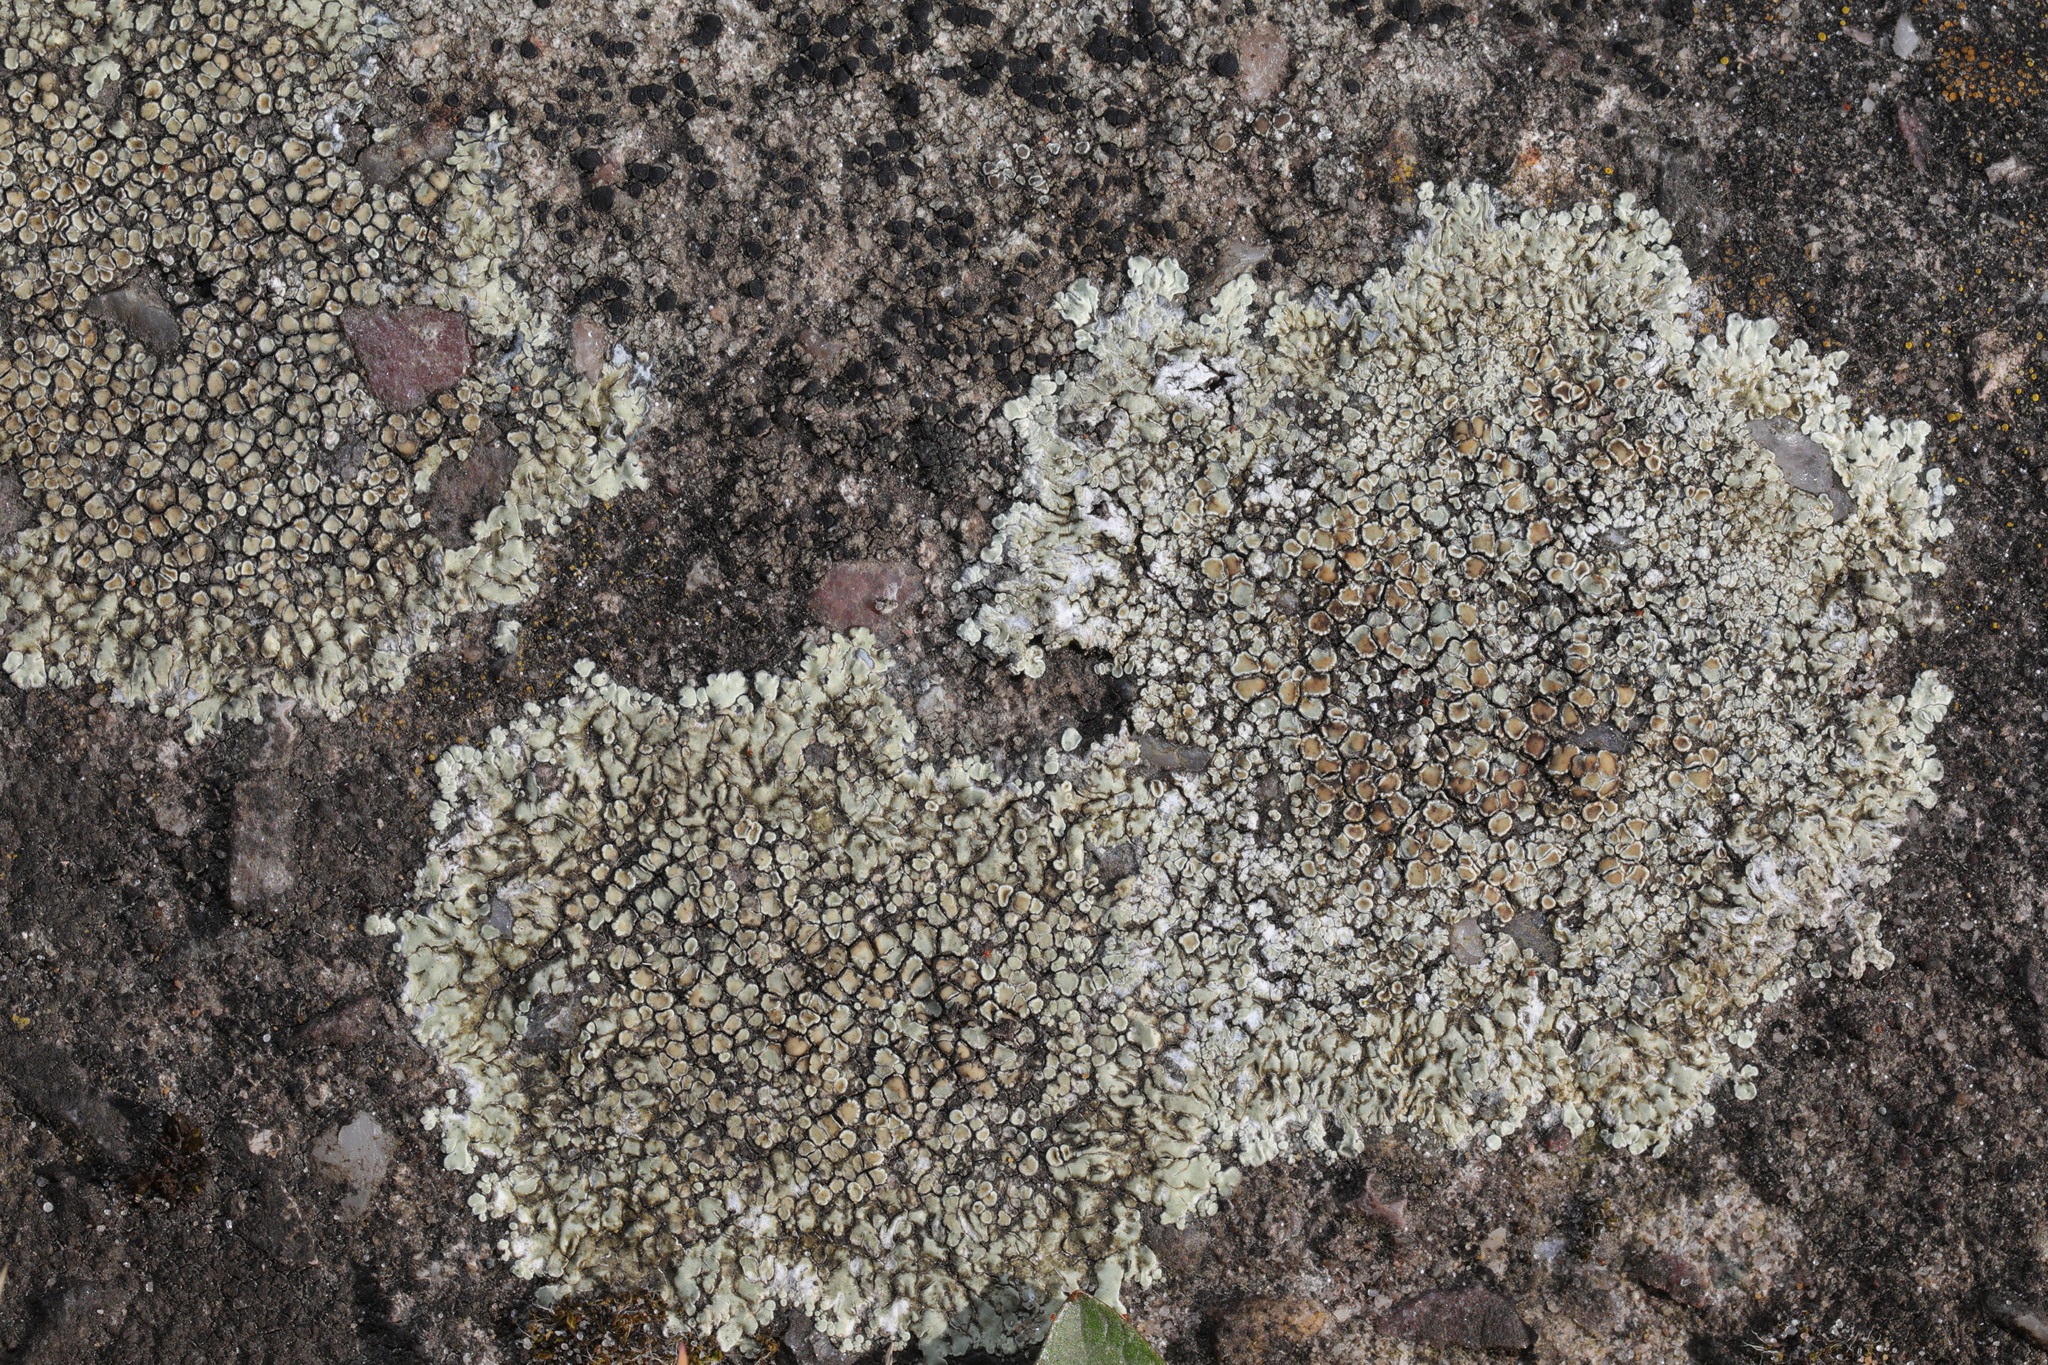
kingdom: Fungi
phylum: Ascomycota
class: Lecanoromycetes
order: Lecanorales
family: Lecanoraceae
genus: Protoparmeliopsis
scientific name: Protoparmeliopsis muralis
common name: Stonewall rim lichen
